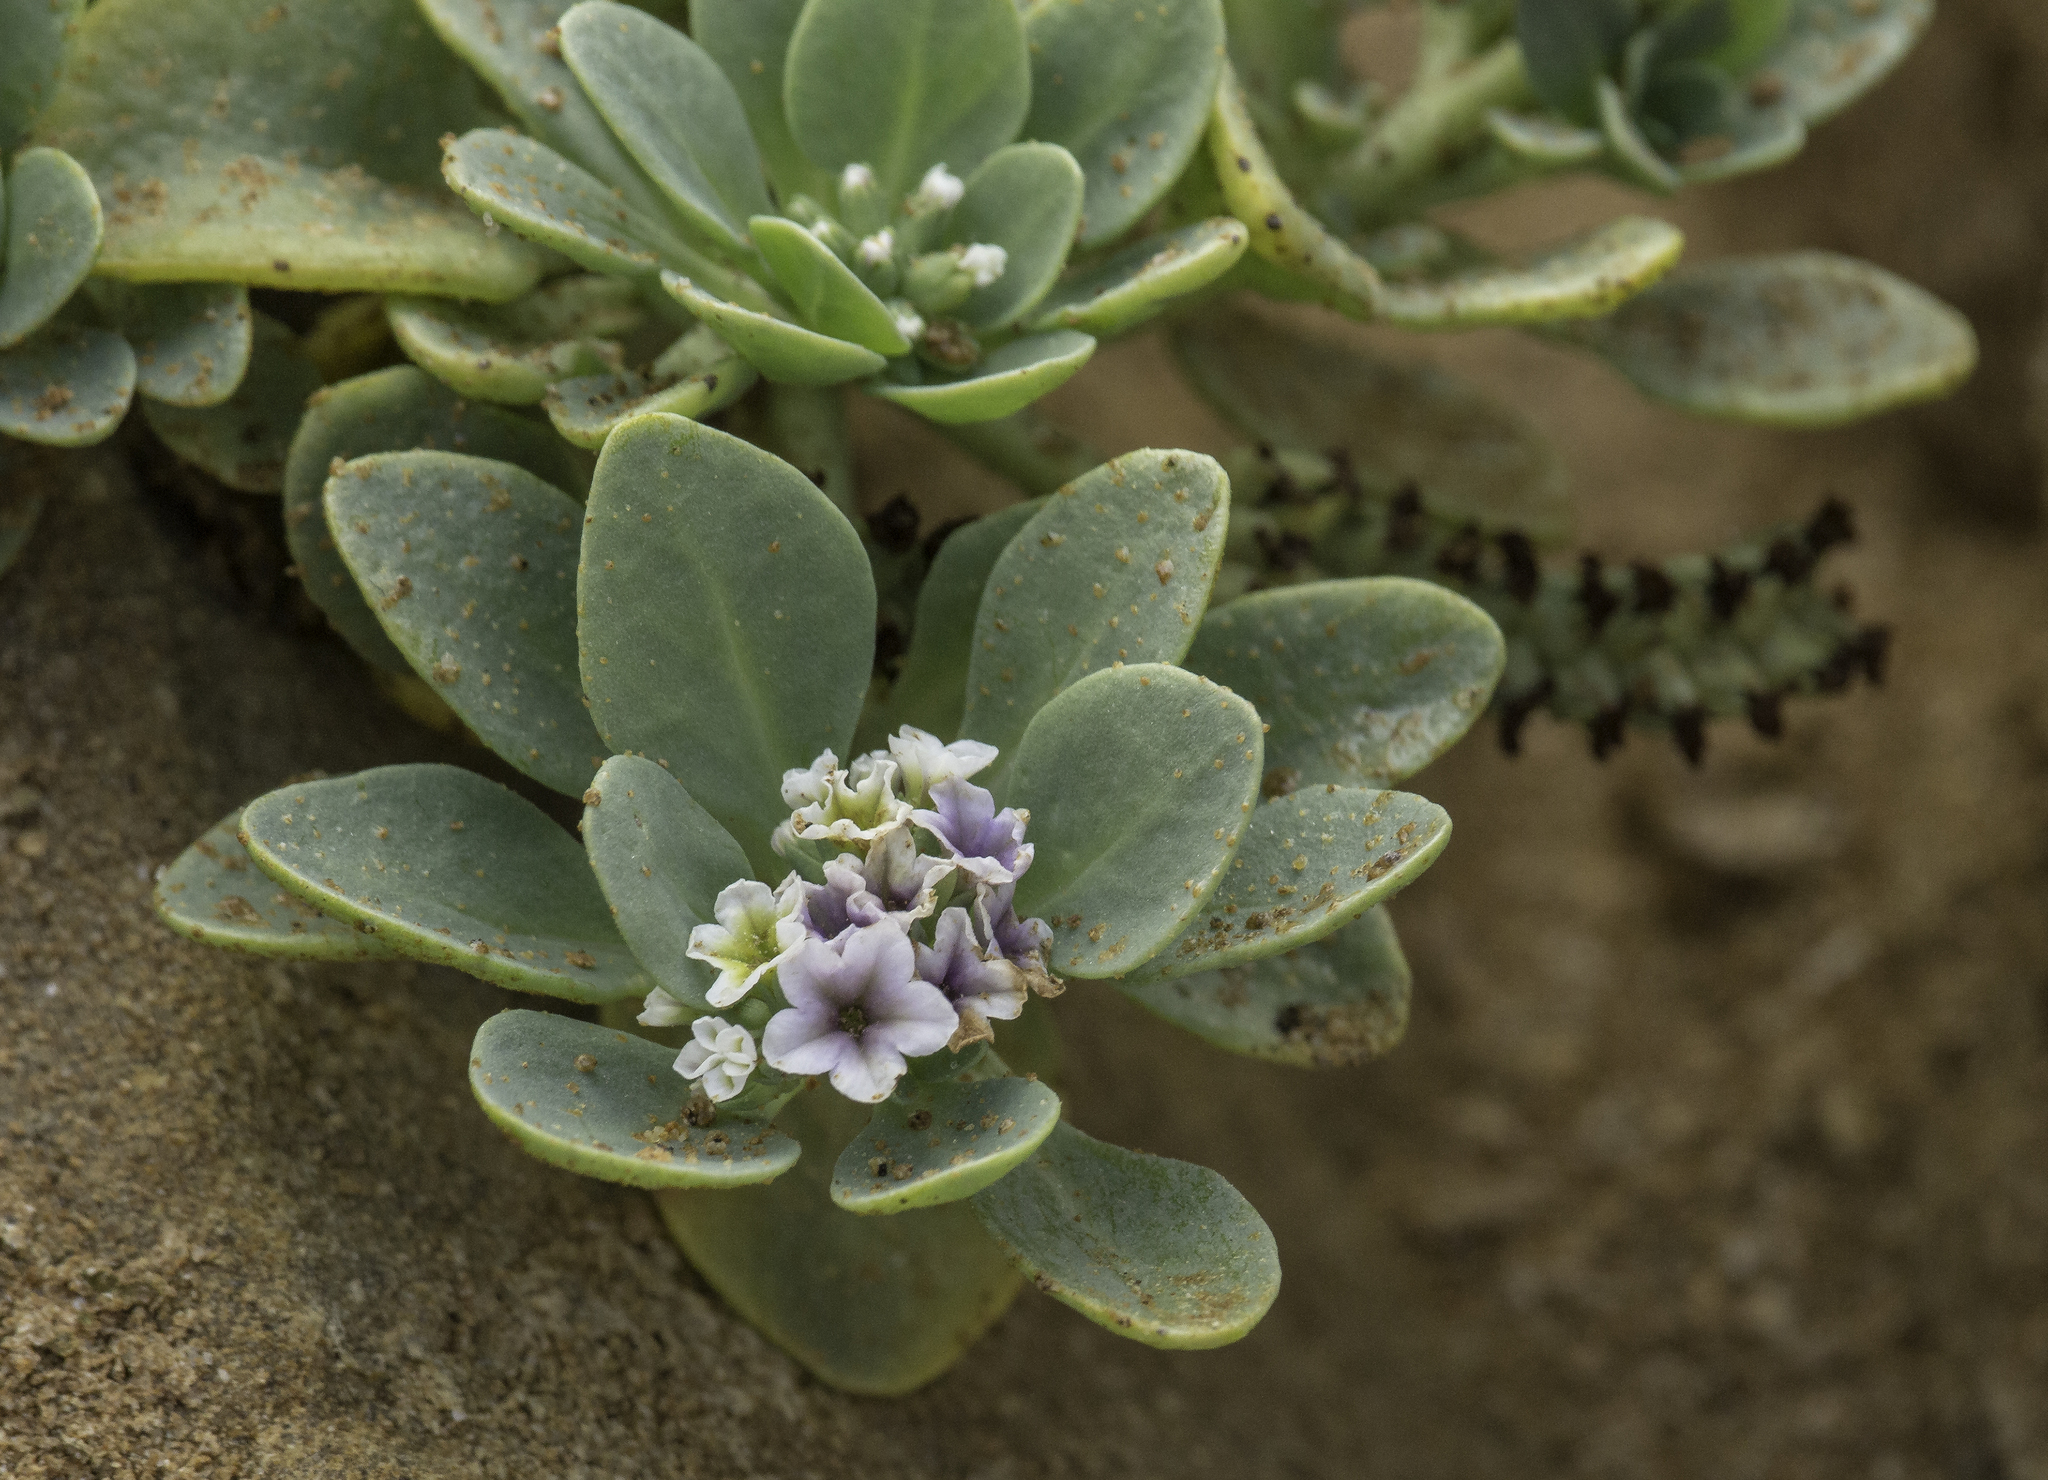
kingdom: Plantae
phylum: Tracheophyta
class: Magnoliopsida
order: Boraginales
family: Heliotropiaceae
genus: Heliotropium
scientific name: Heliotropium curassavicum
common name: Seaside heliotrope
